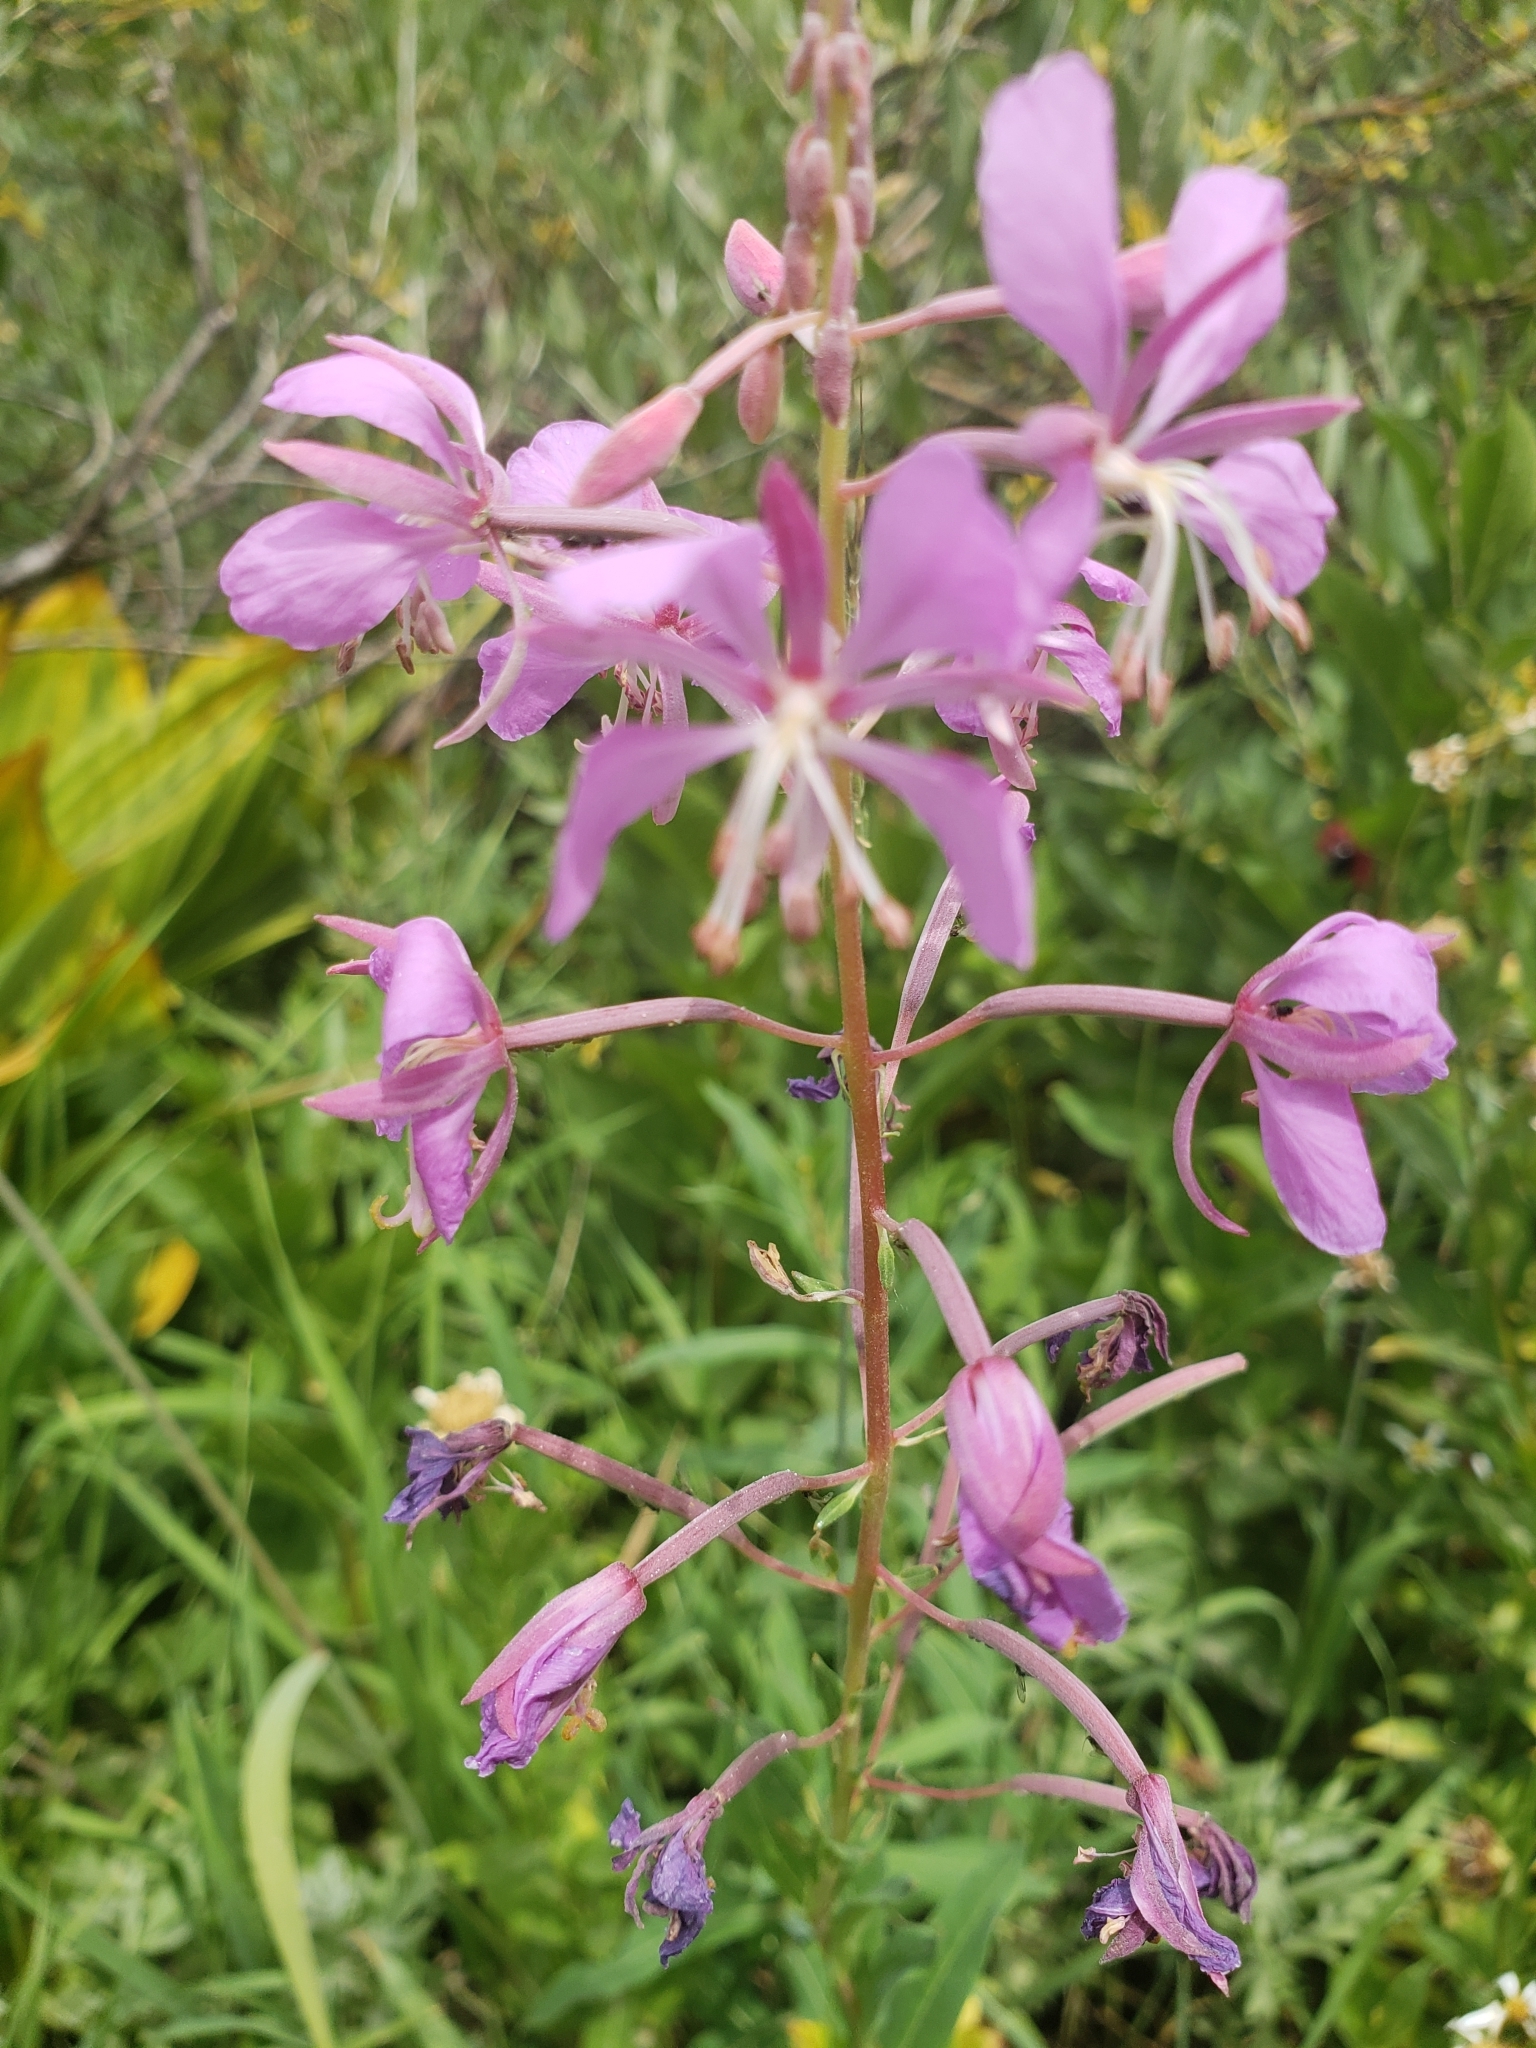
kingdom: Plantae
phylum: Tracheophyta
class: Magnoliopsida
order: Myrtales
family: Onagraceae
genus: Chamaenerion
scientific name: Chamaenerion angustifolium
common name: Fireweed
